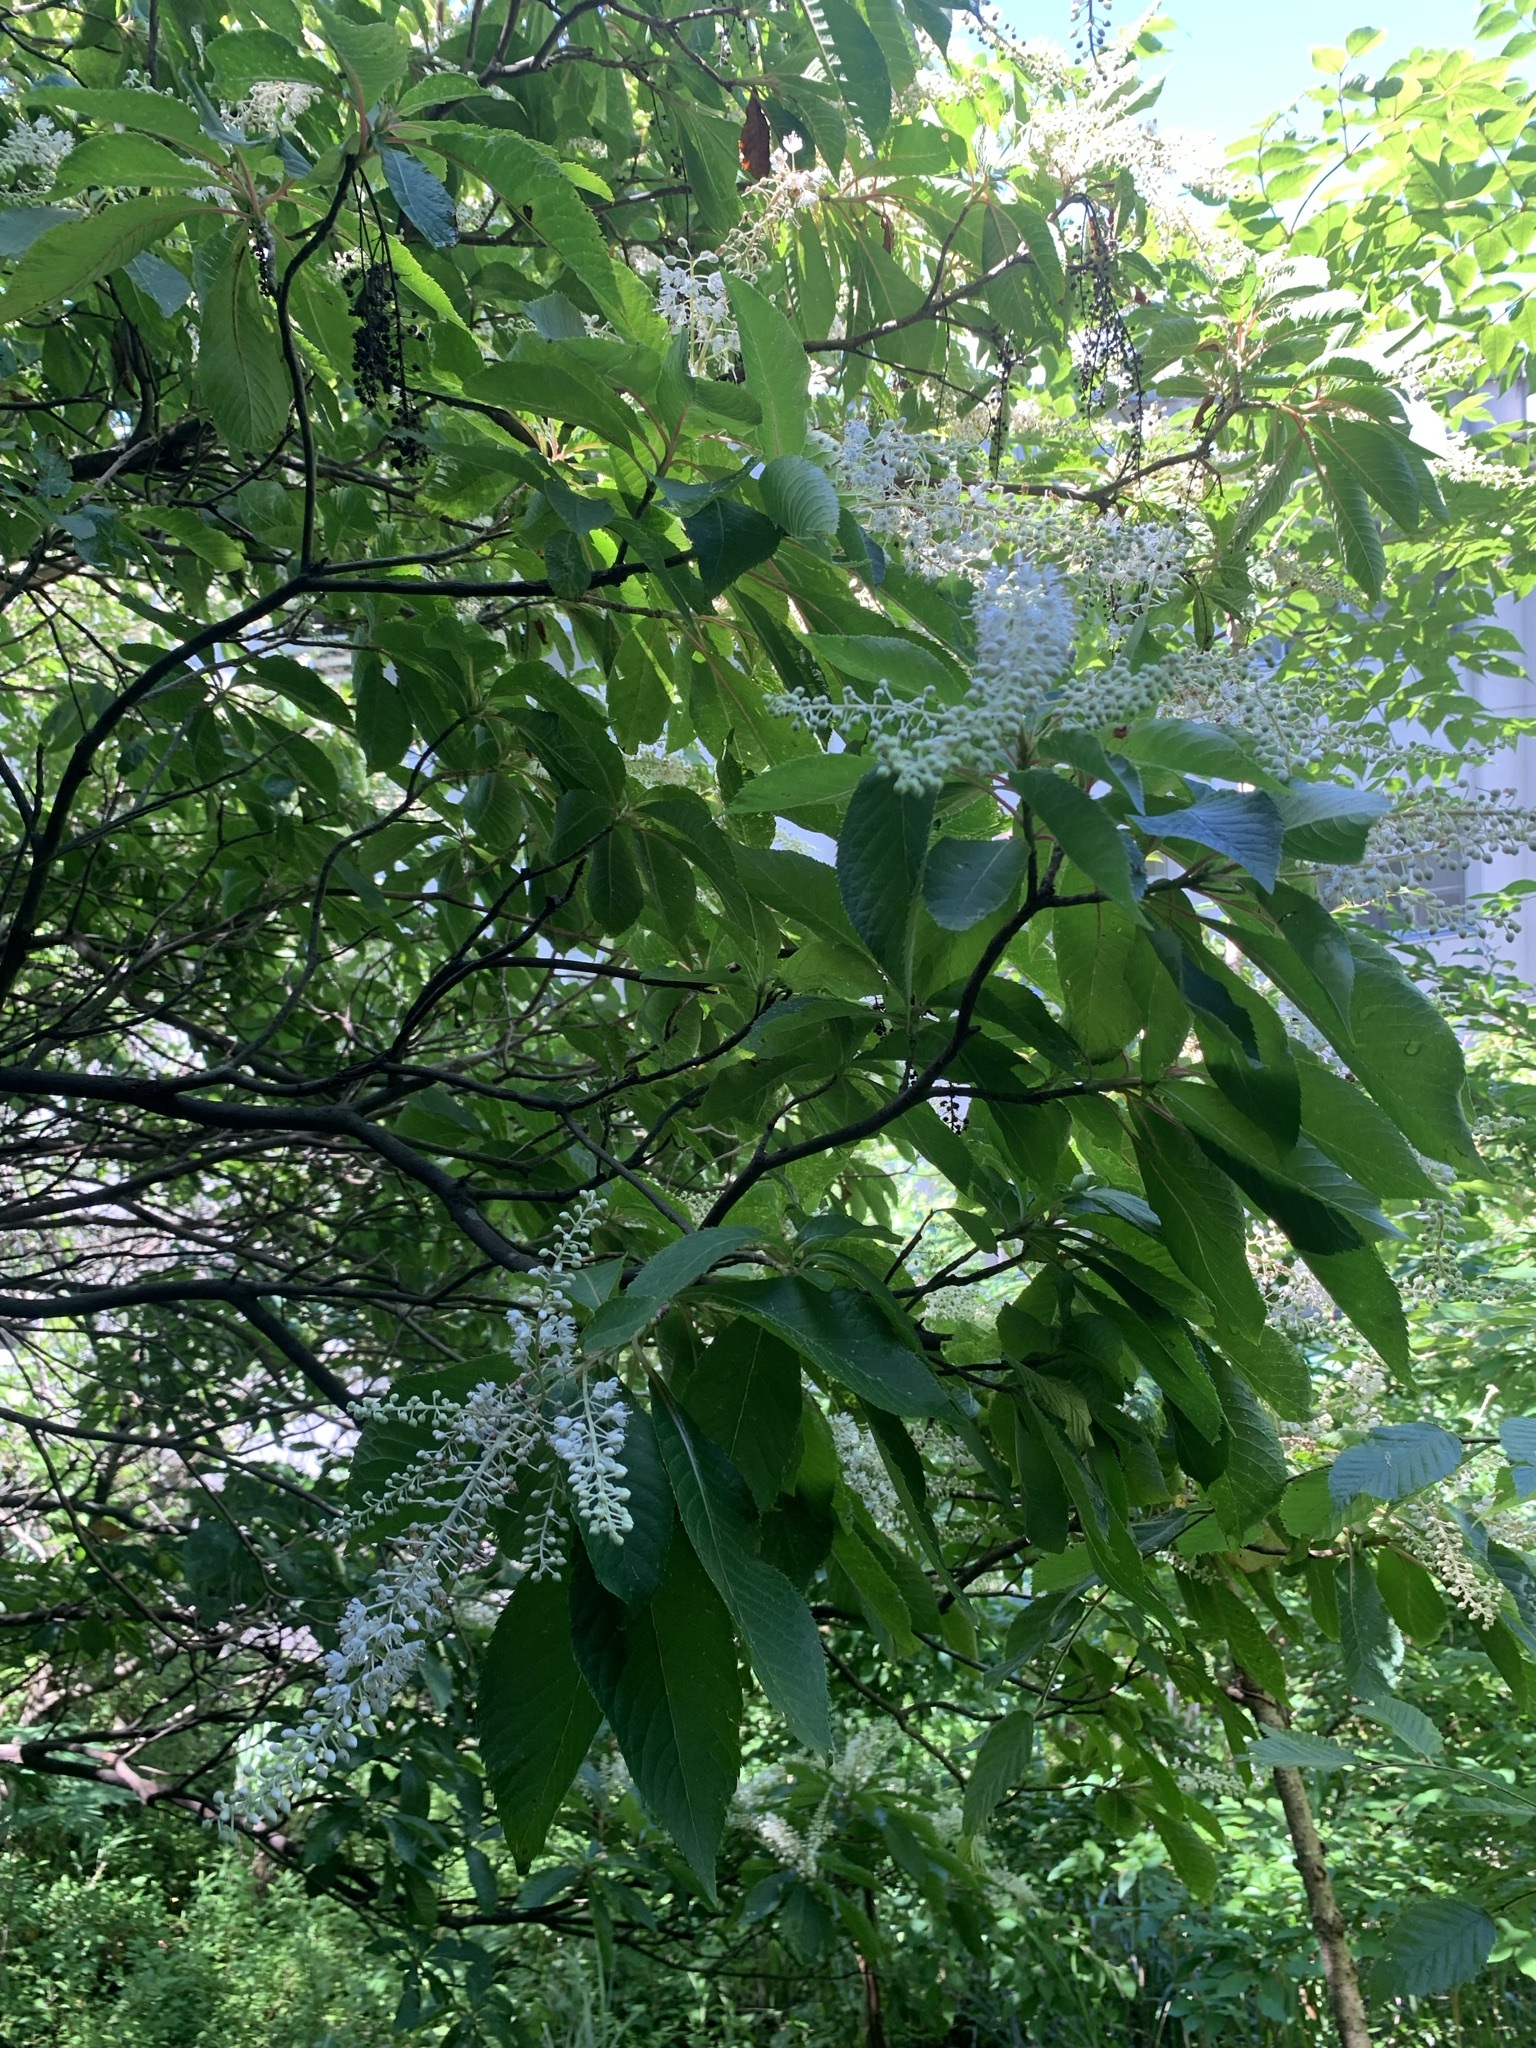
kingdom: Plantae
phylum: Tracheophyta
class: Magnoliopsida
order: Ericales
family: Clethraceae
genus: Clethra
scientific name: Clethra barbinervis
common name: Japanese clethra
